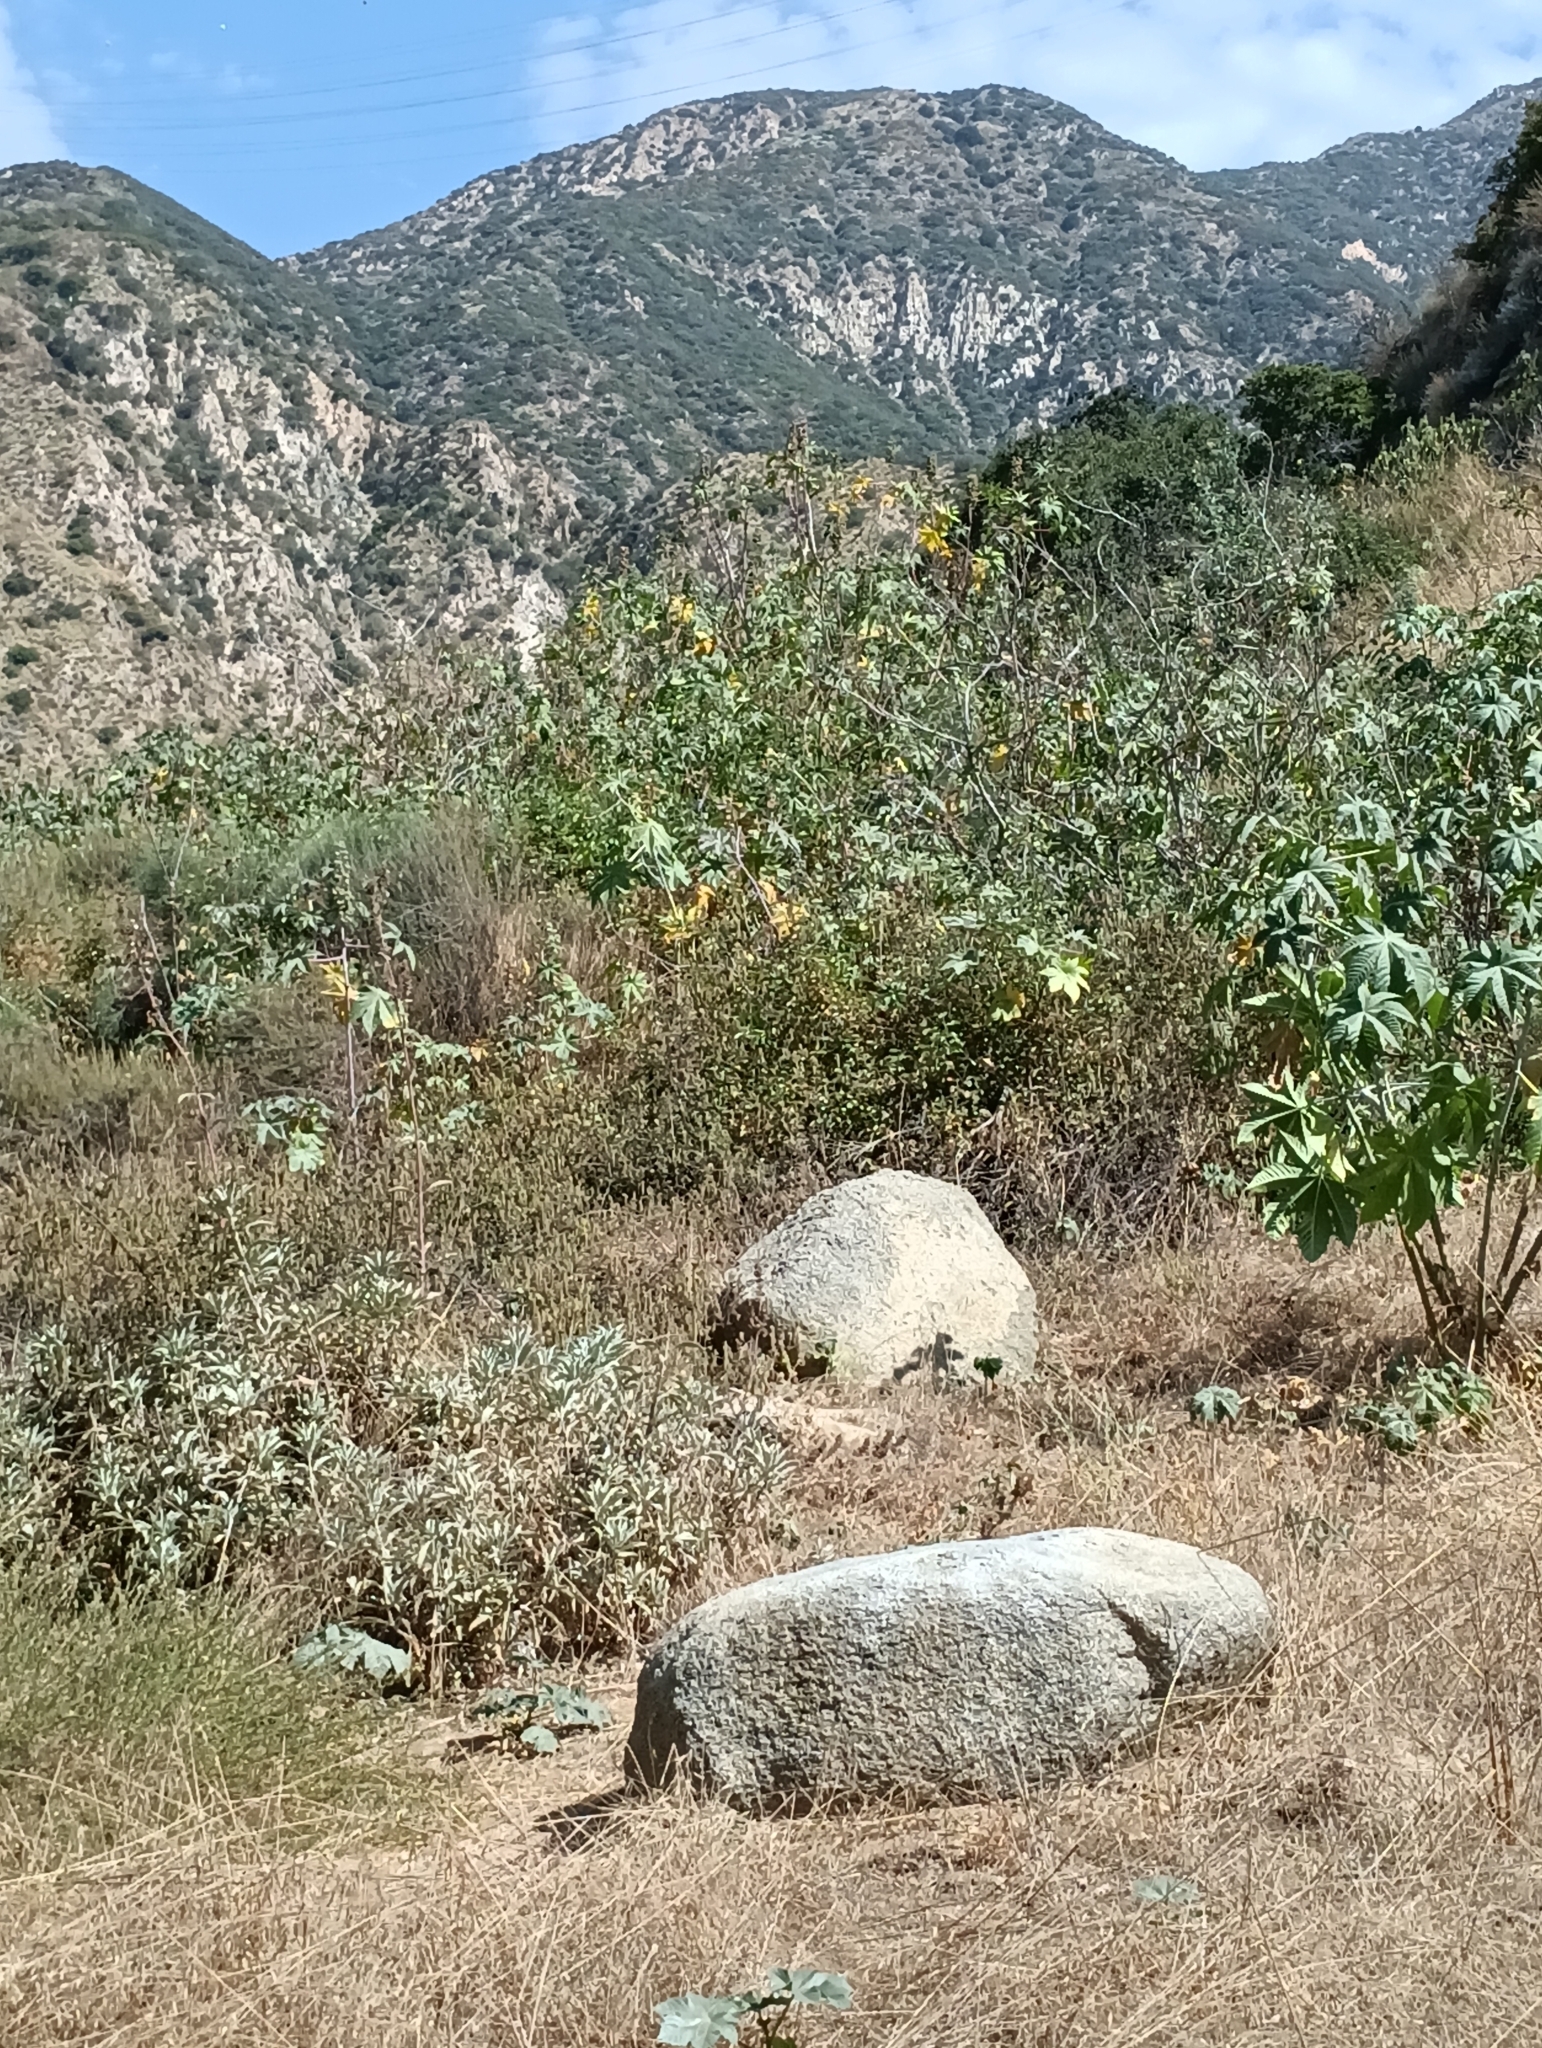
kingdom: Plantae
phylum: Tracheophyta
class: Magnoliopsida
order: Malpighiales
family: Euphorbiaceae
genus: Ricinus
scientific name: Ricinus communis
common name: Castor-oil-plant
